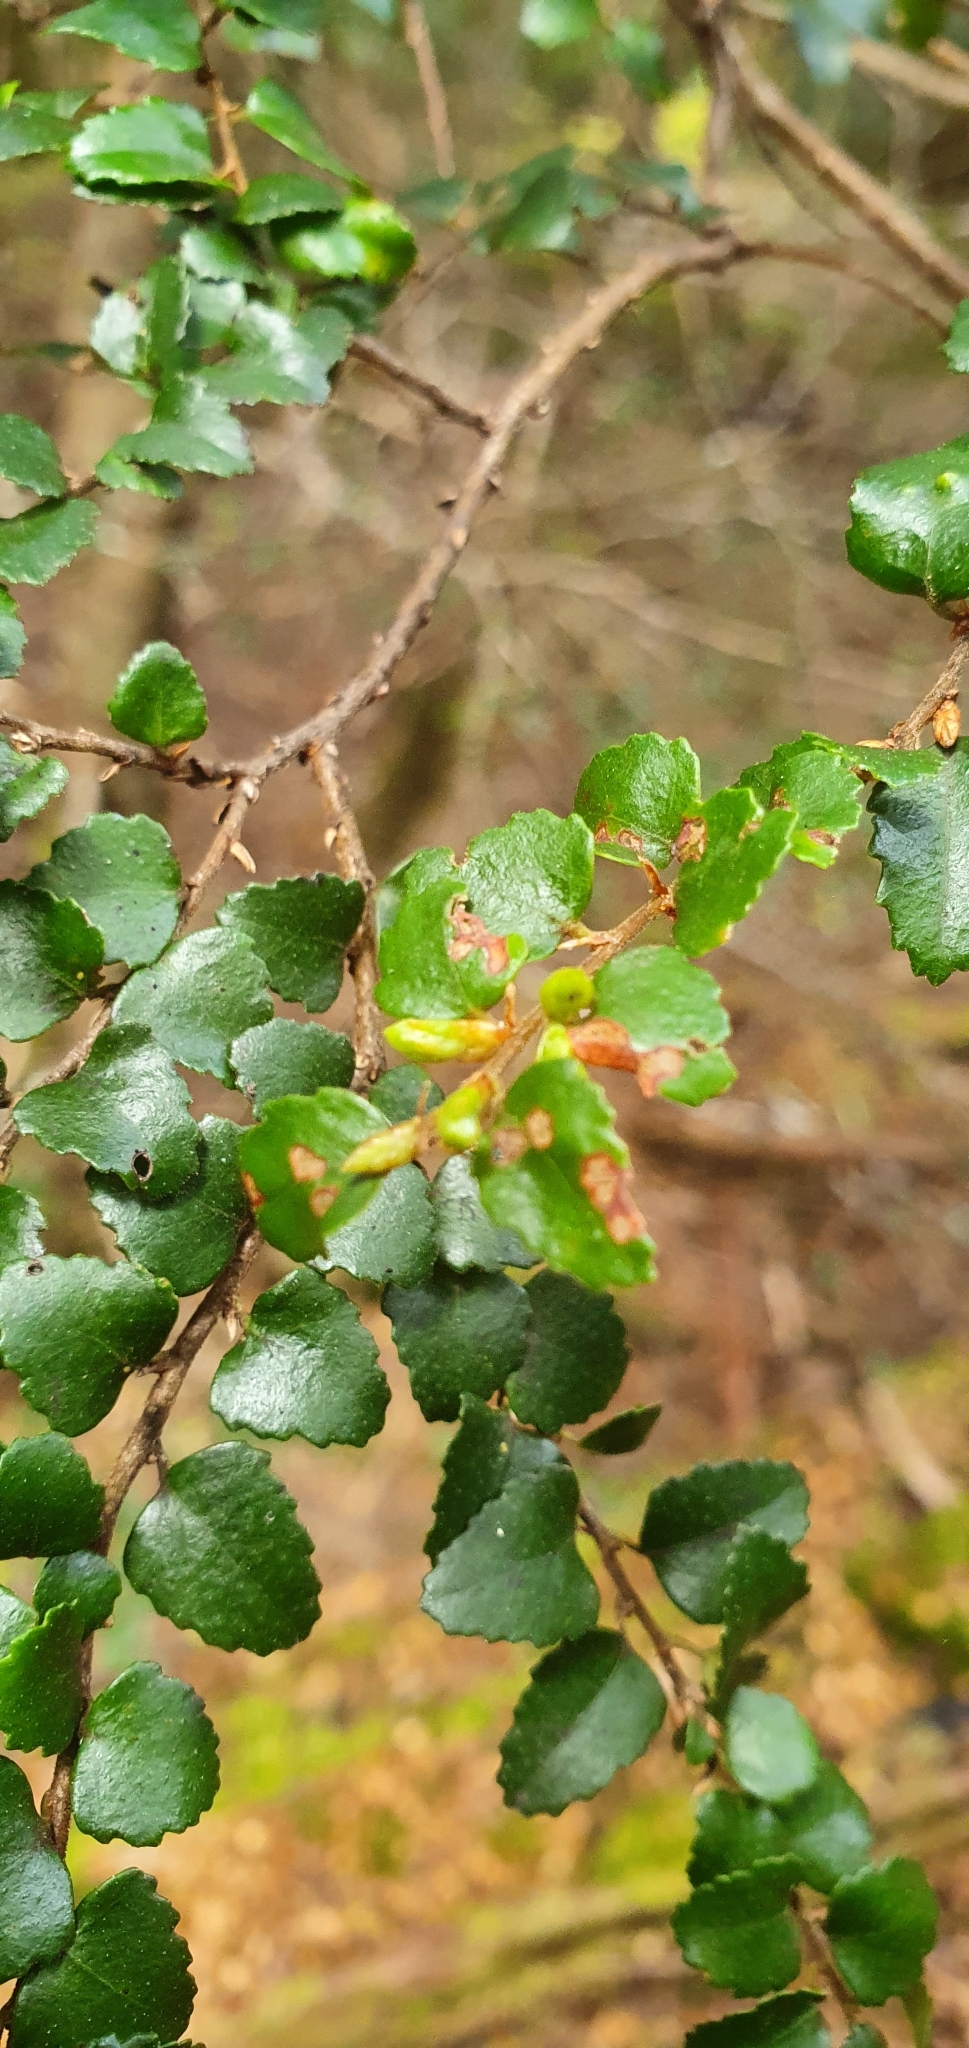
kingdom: Plantae
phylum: Tracheophyta
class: Magnoliopsida
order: Fagales
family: Nothofagaceae
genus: Nothofagus
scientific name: Nothofagus cunninghamii
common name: Myrtle beech
